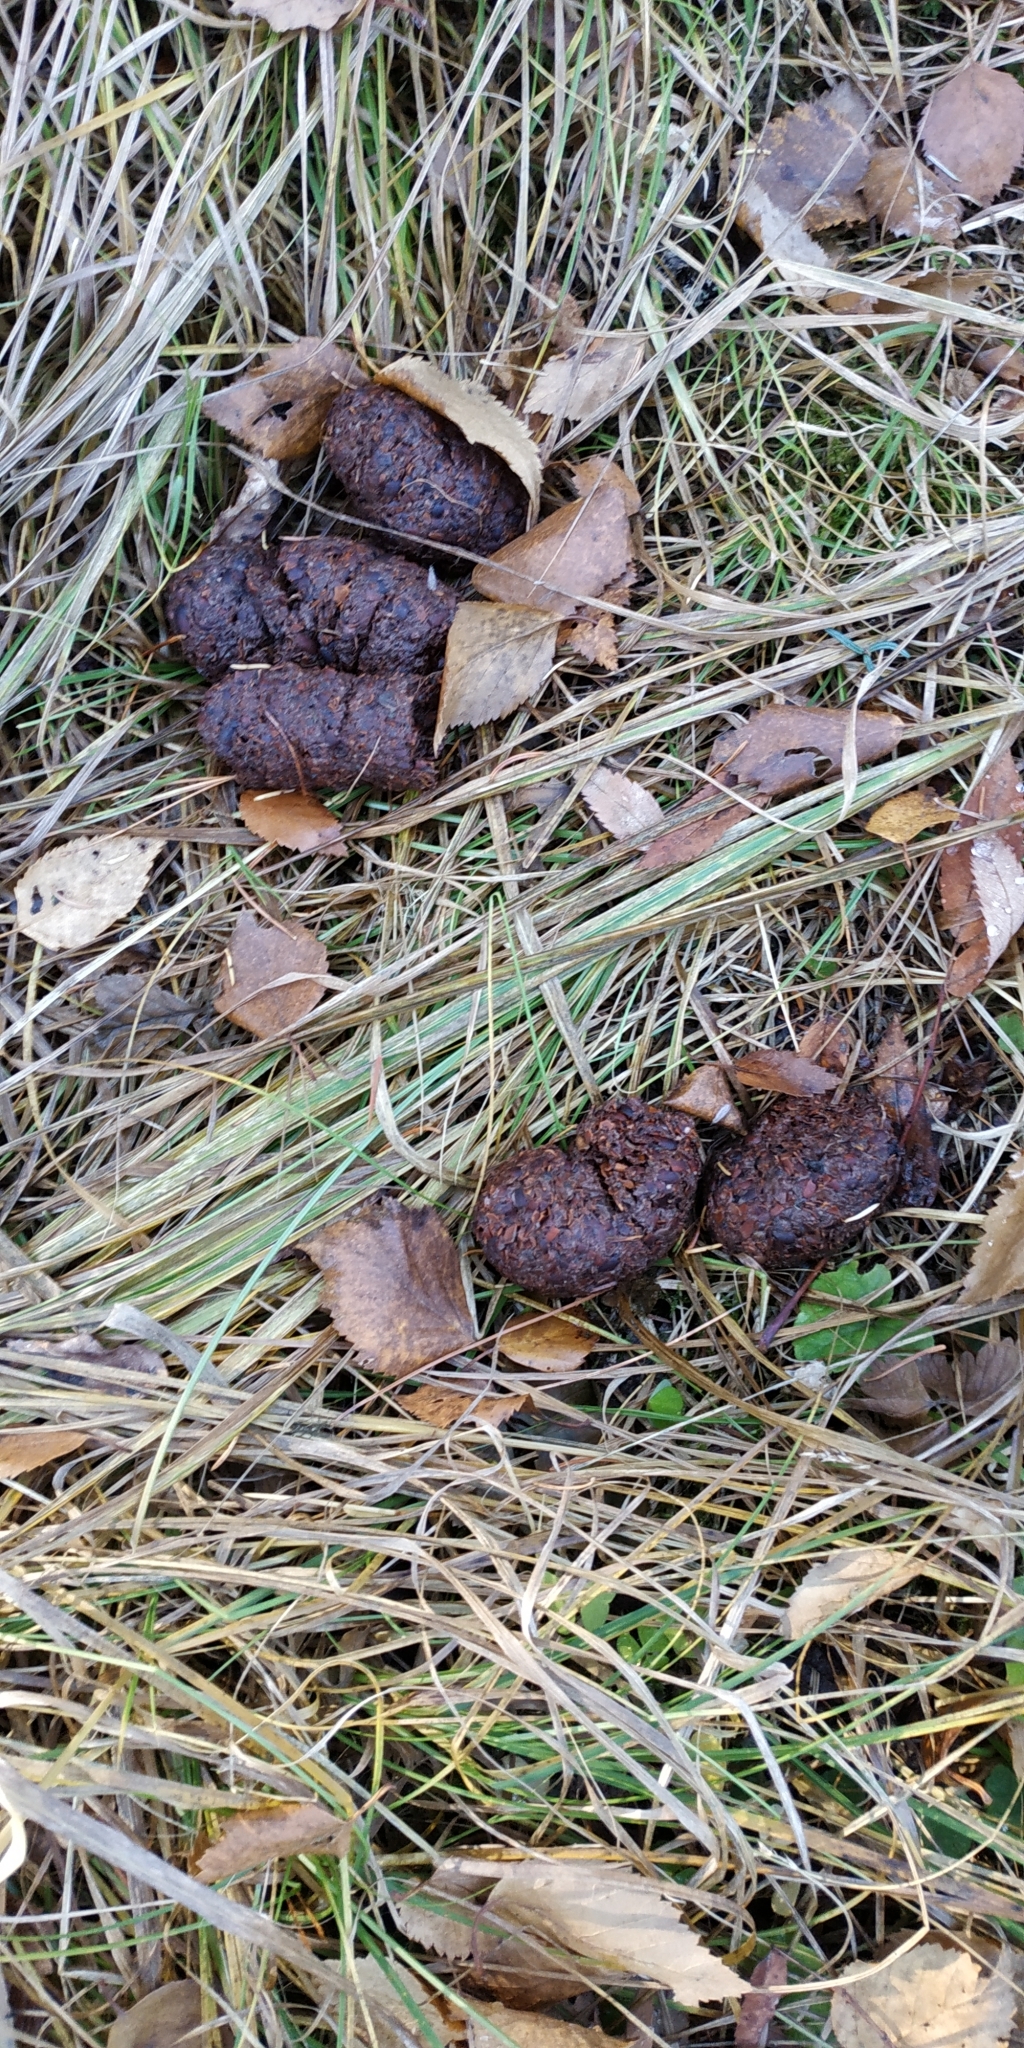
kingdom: Animalia
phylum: Chordata
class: Mammalia
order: Carnivora
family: Ursidae
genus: Ursus
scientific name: Ursus arctos
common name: Brown bear
